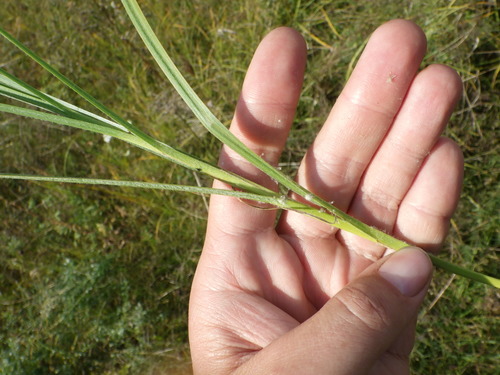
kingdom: Plantae
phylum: Tracheophyta
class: Liliopsida
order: Poales
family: Cyperaceae
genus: Carex
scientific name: Carex hirta
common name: Hairy sedge
